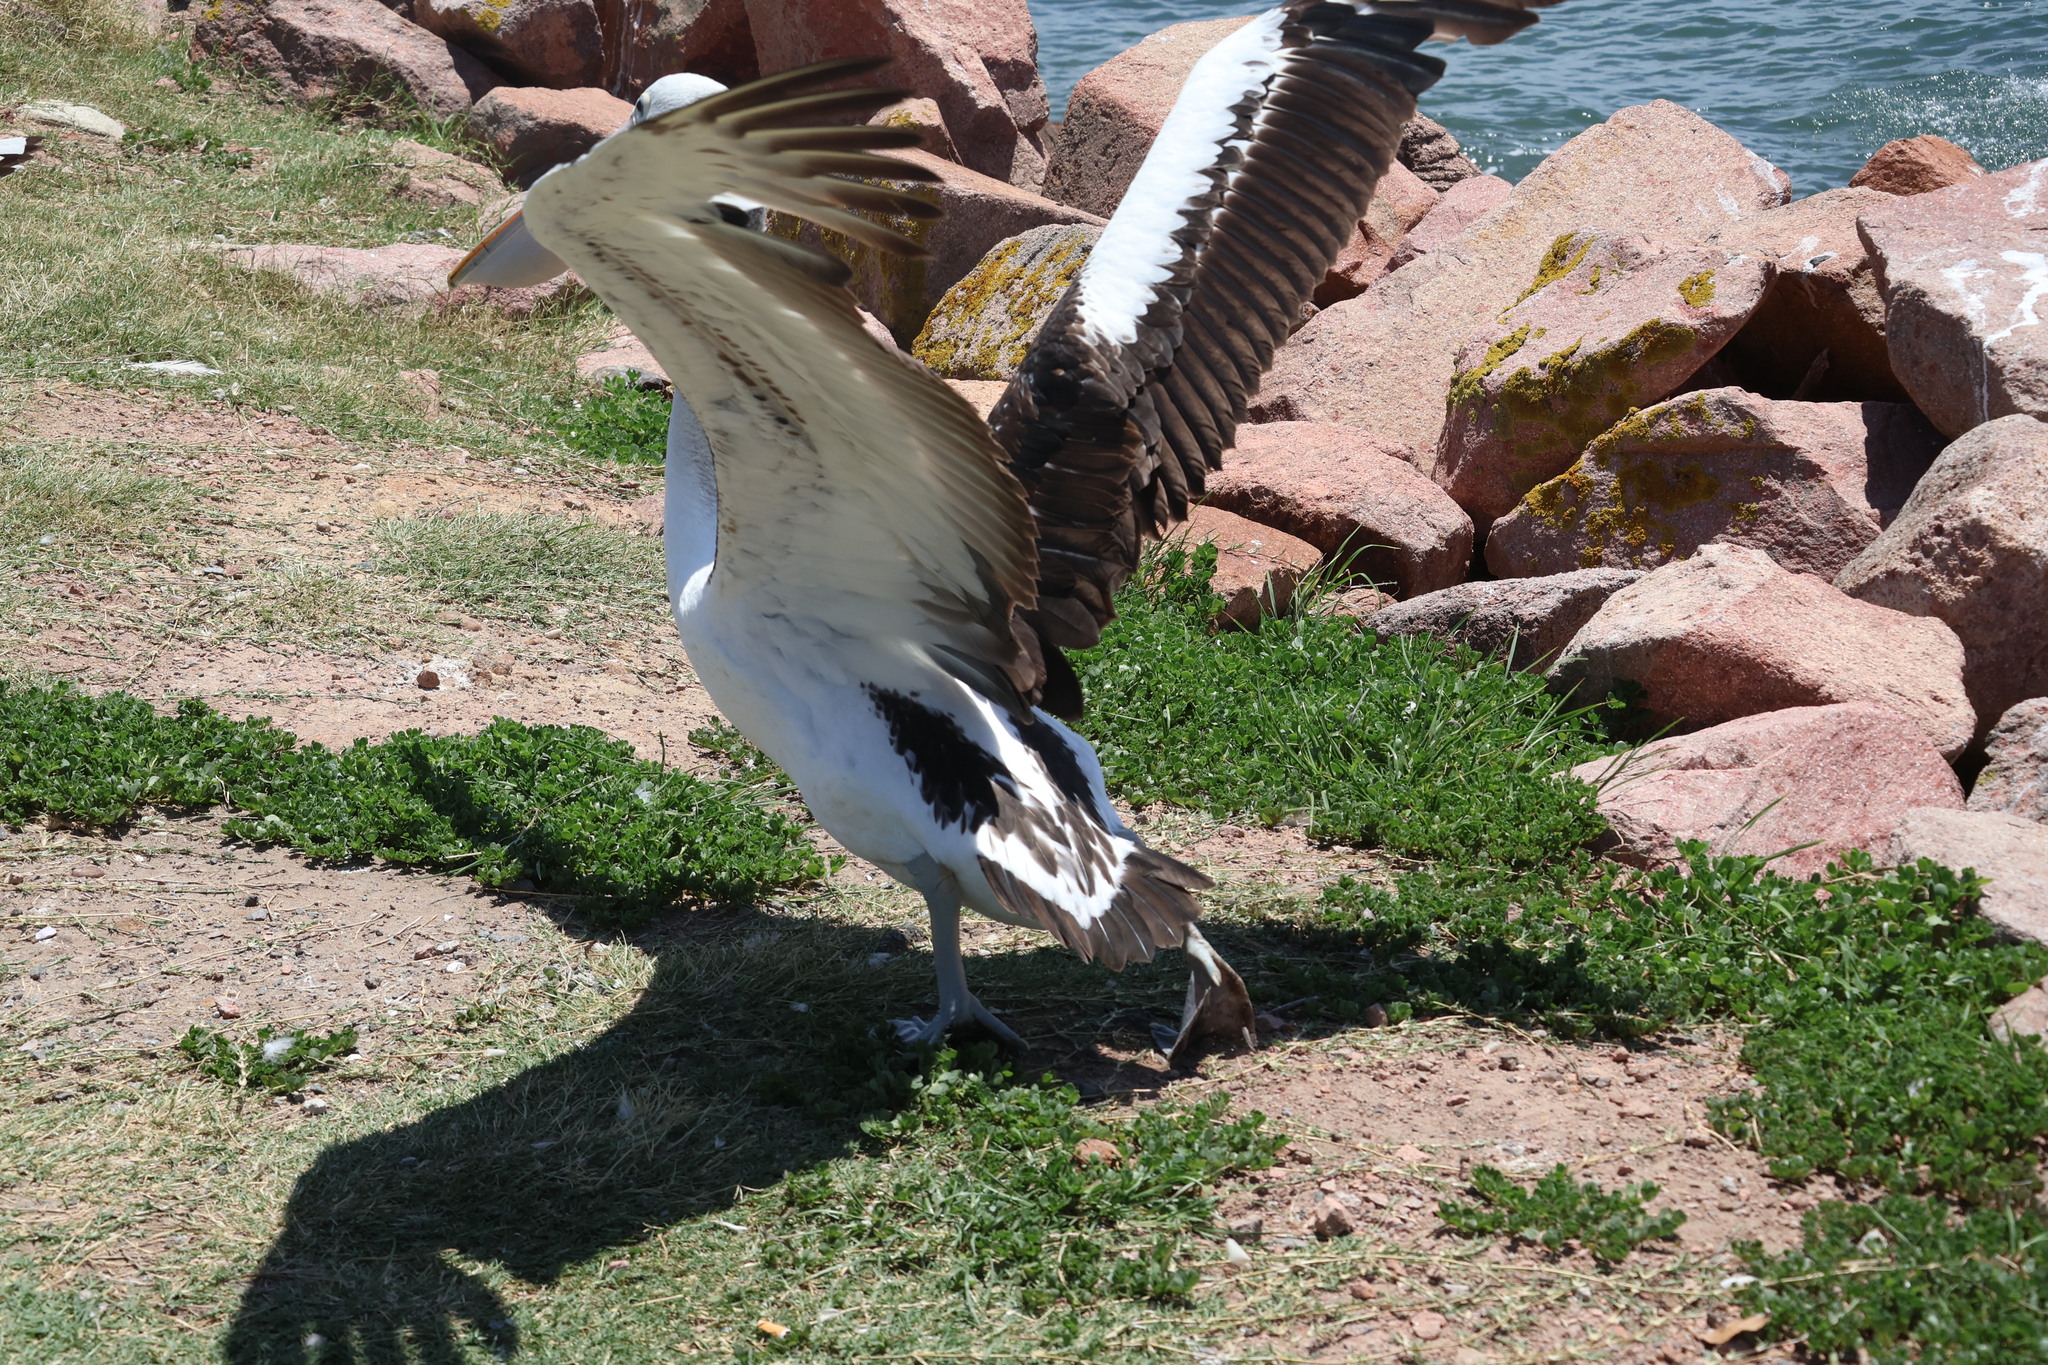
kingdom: Animalia
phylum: Chordata
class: Aves
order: Pelecaniformes
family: Pelecanidae
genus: Pelecanus
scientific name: Pelecanus conspicillatus
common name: Australian pelican
